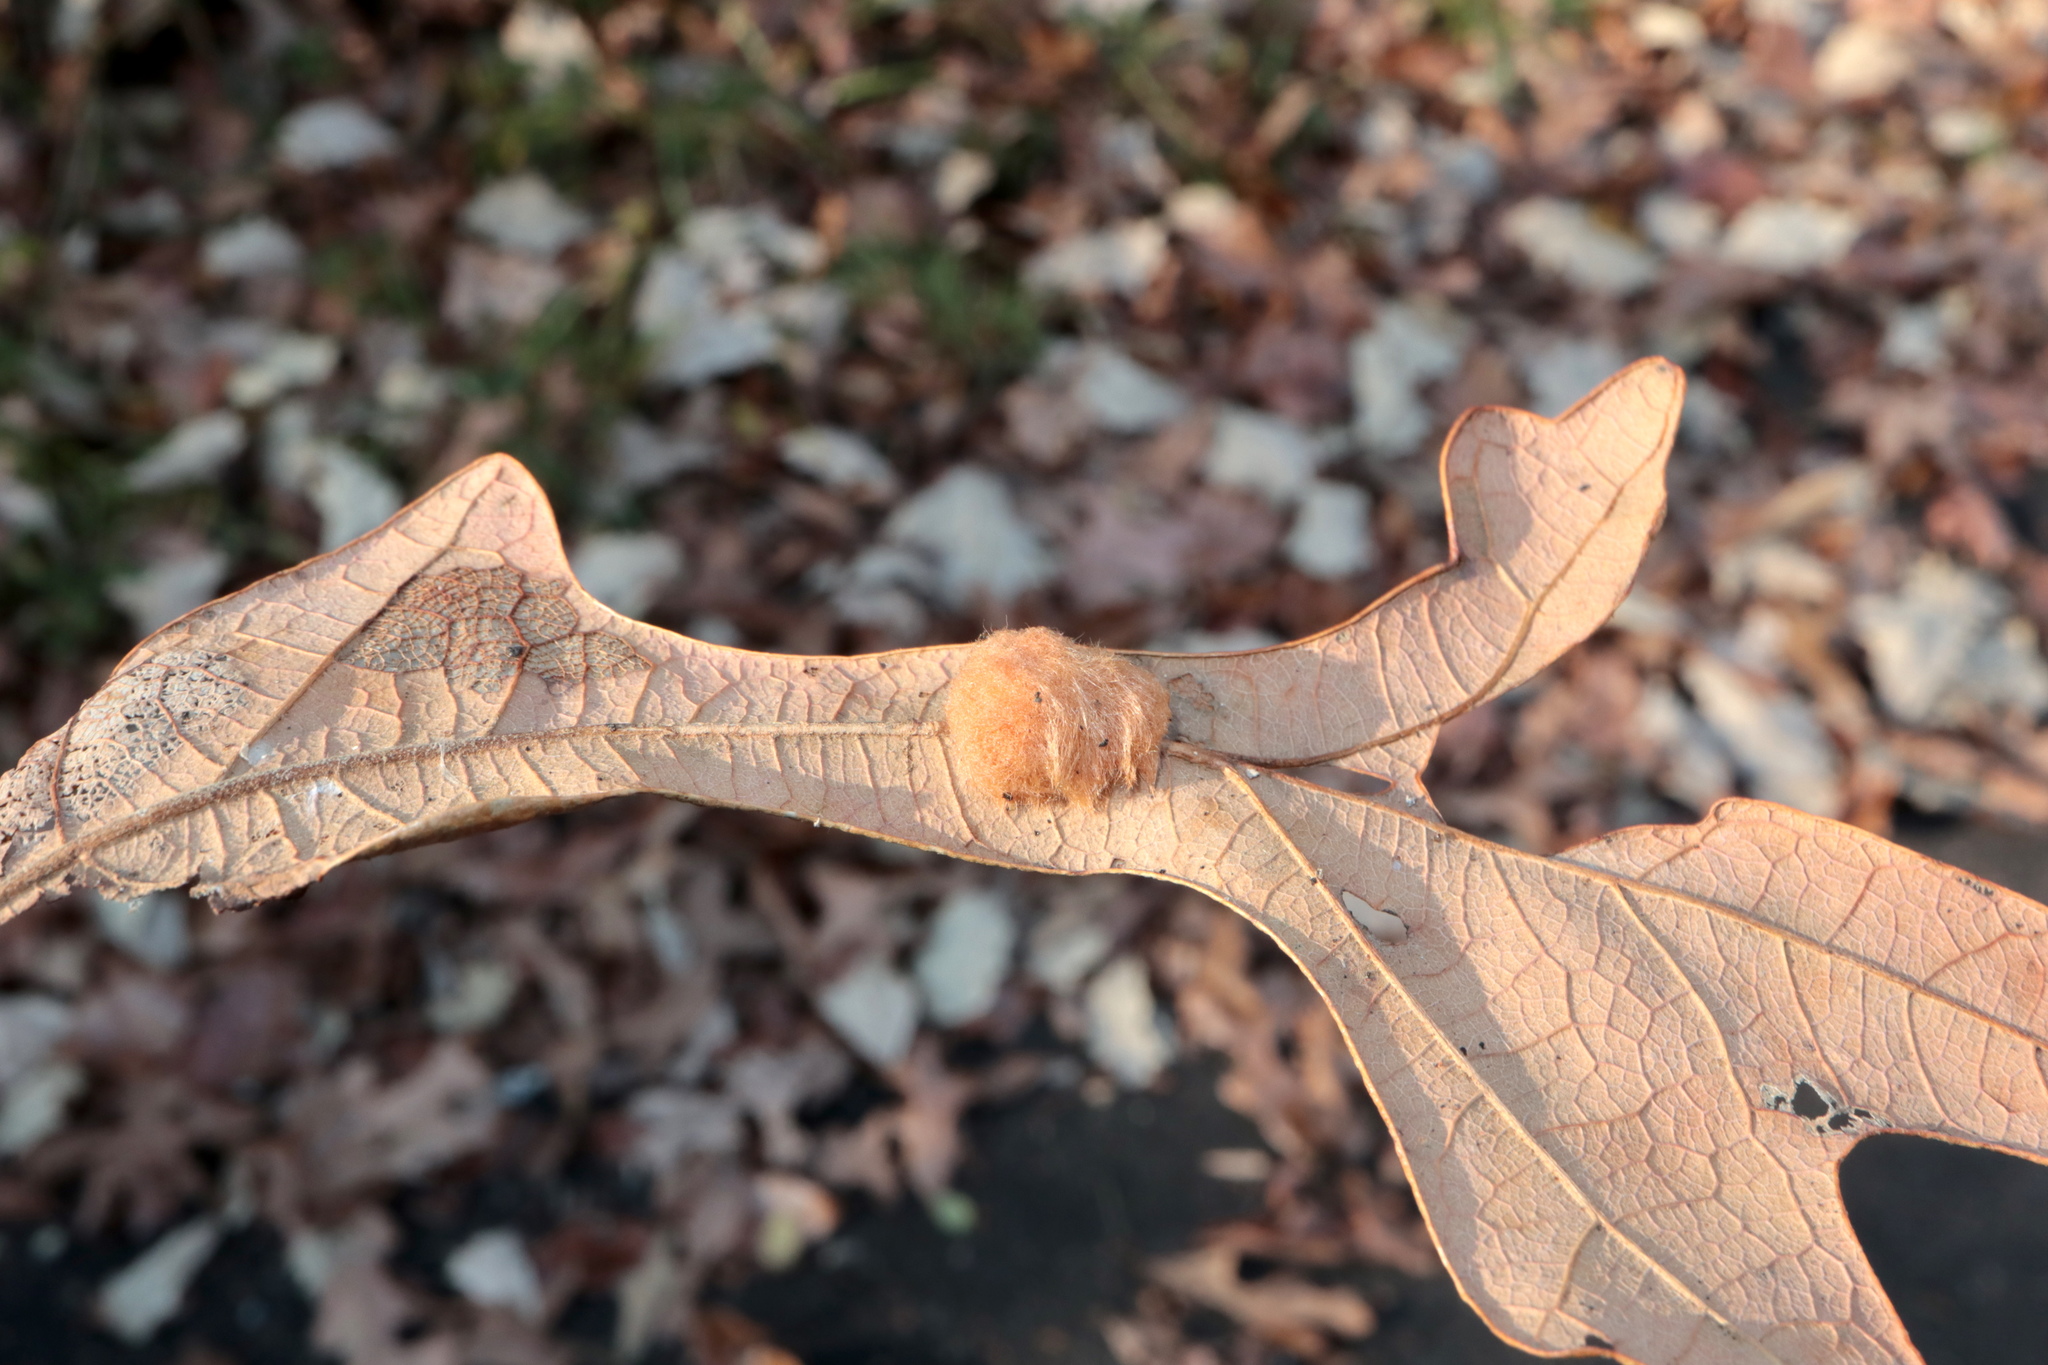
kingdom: Animalia
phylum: Arthropoda
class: Insecta
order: Hymenoptera
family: Cynipidae
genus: Andricus
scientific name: Andricus Druon pattoni
